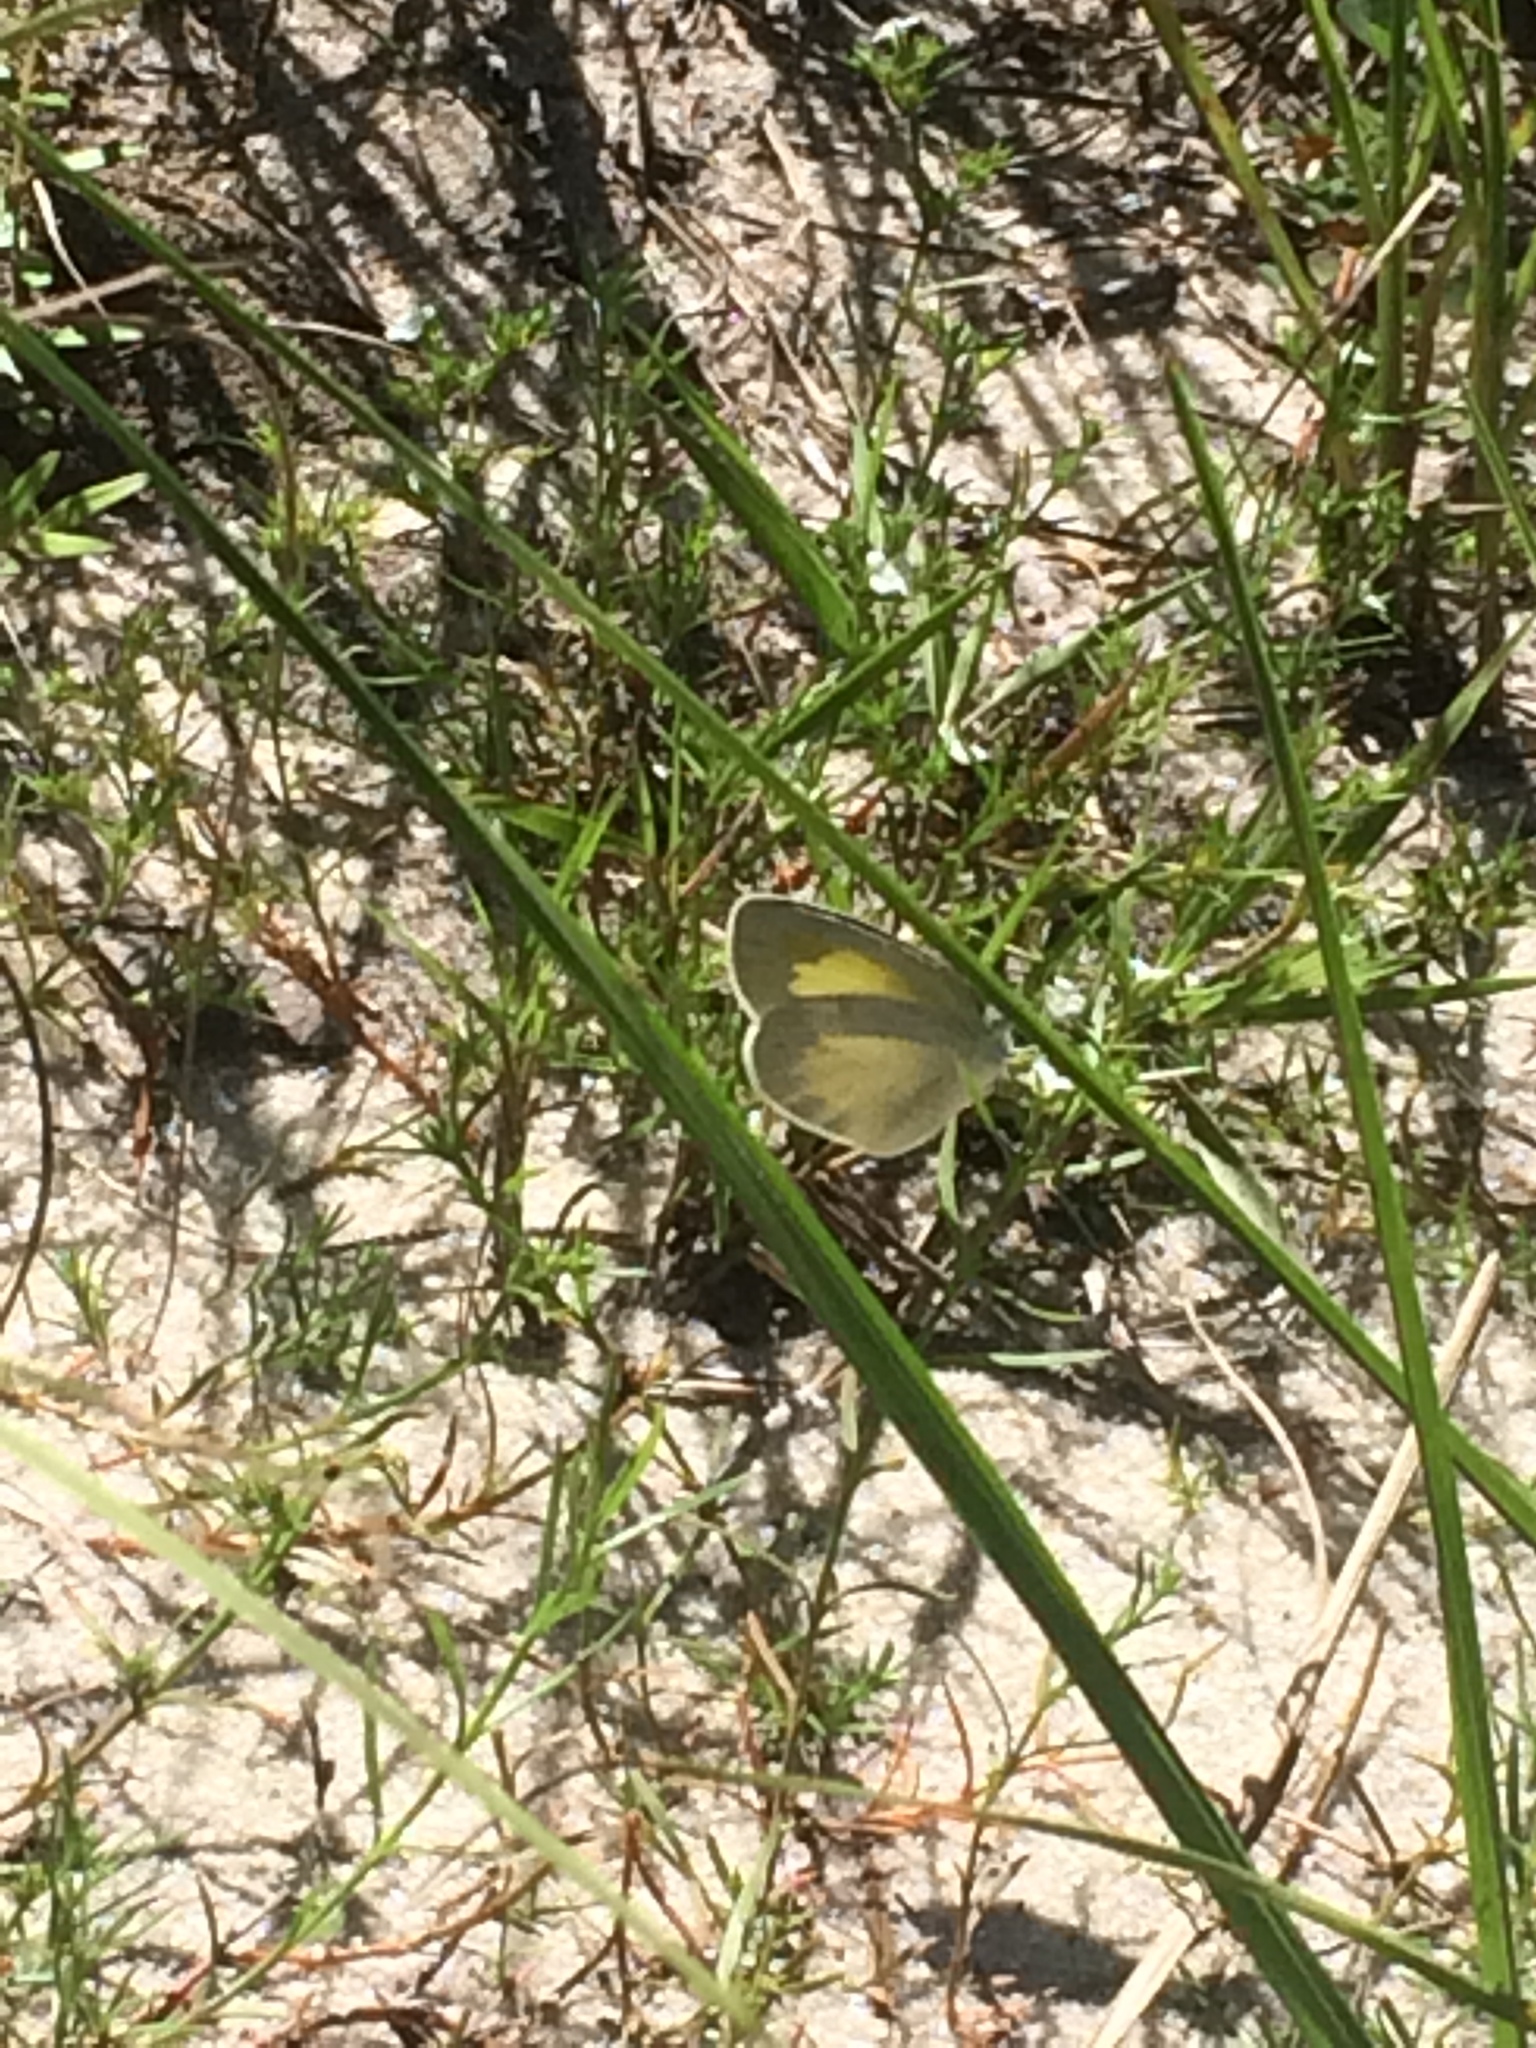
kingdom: Animalia
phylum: Arthropoda
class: Insecta
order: Lepidoptera
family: Pieridae
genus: Eurema
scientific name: Eurema daira
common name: Barred sulphur
